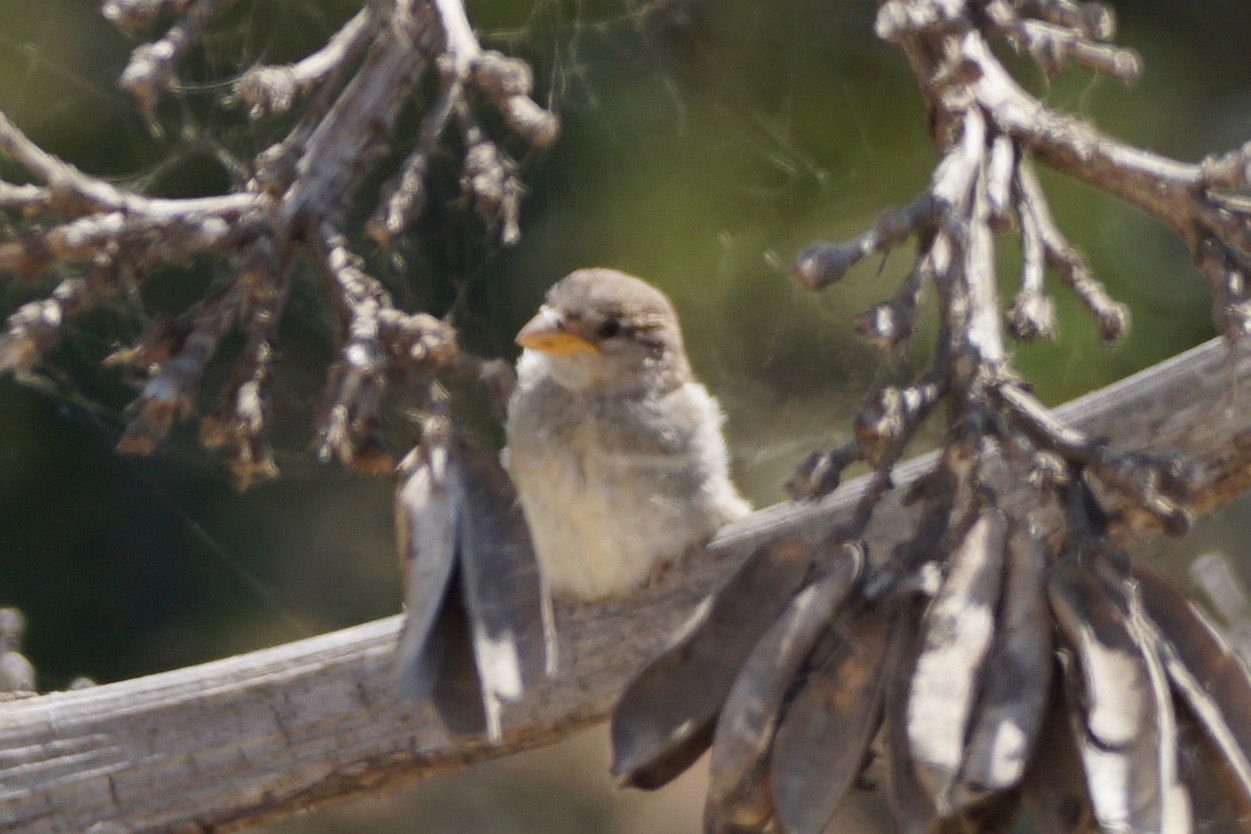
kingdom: Animalia
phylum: Chordata
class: Aves
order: Passeriformes
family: Passeridae
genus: Passer
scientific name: Passer domesticus
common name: House sparrow
